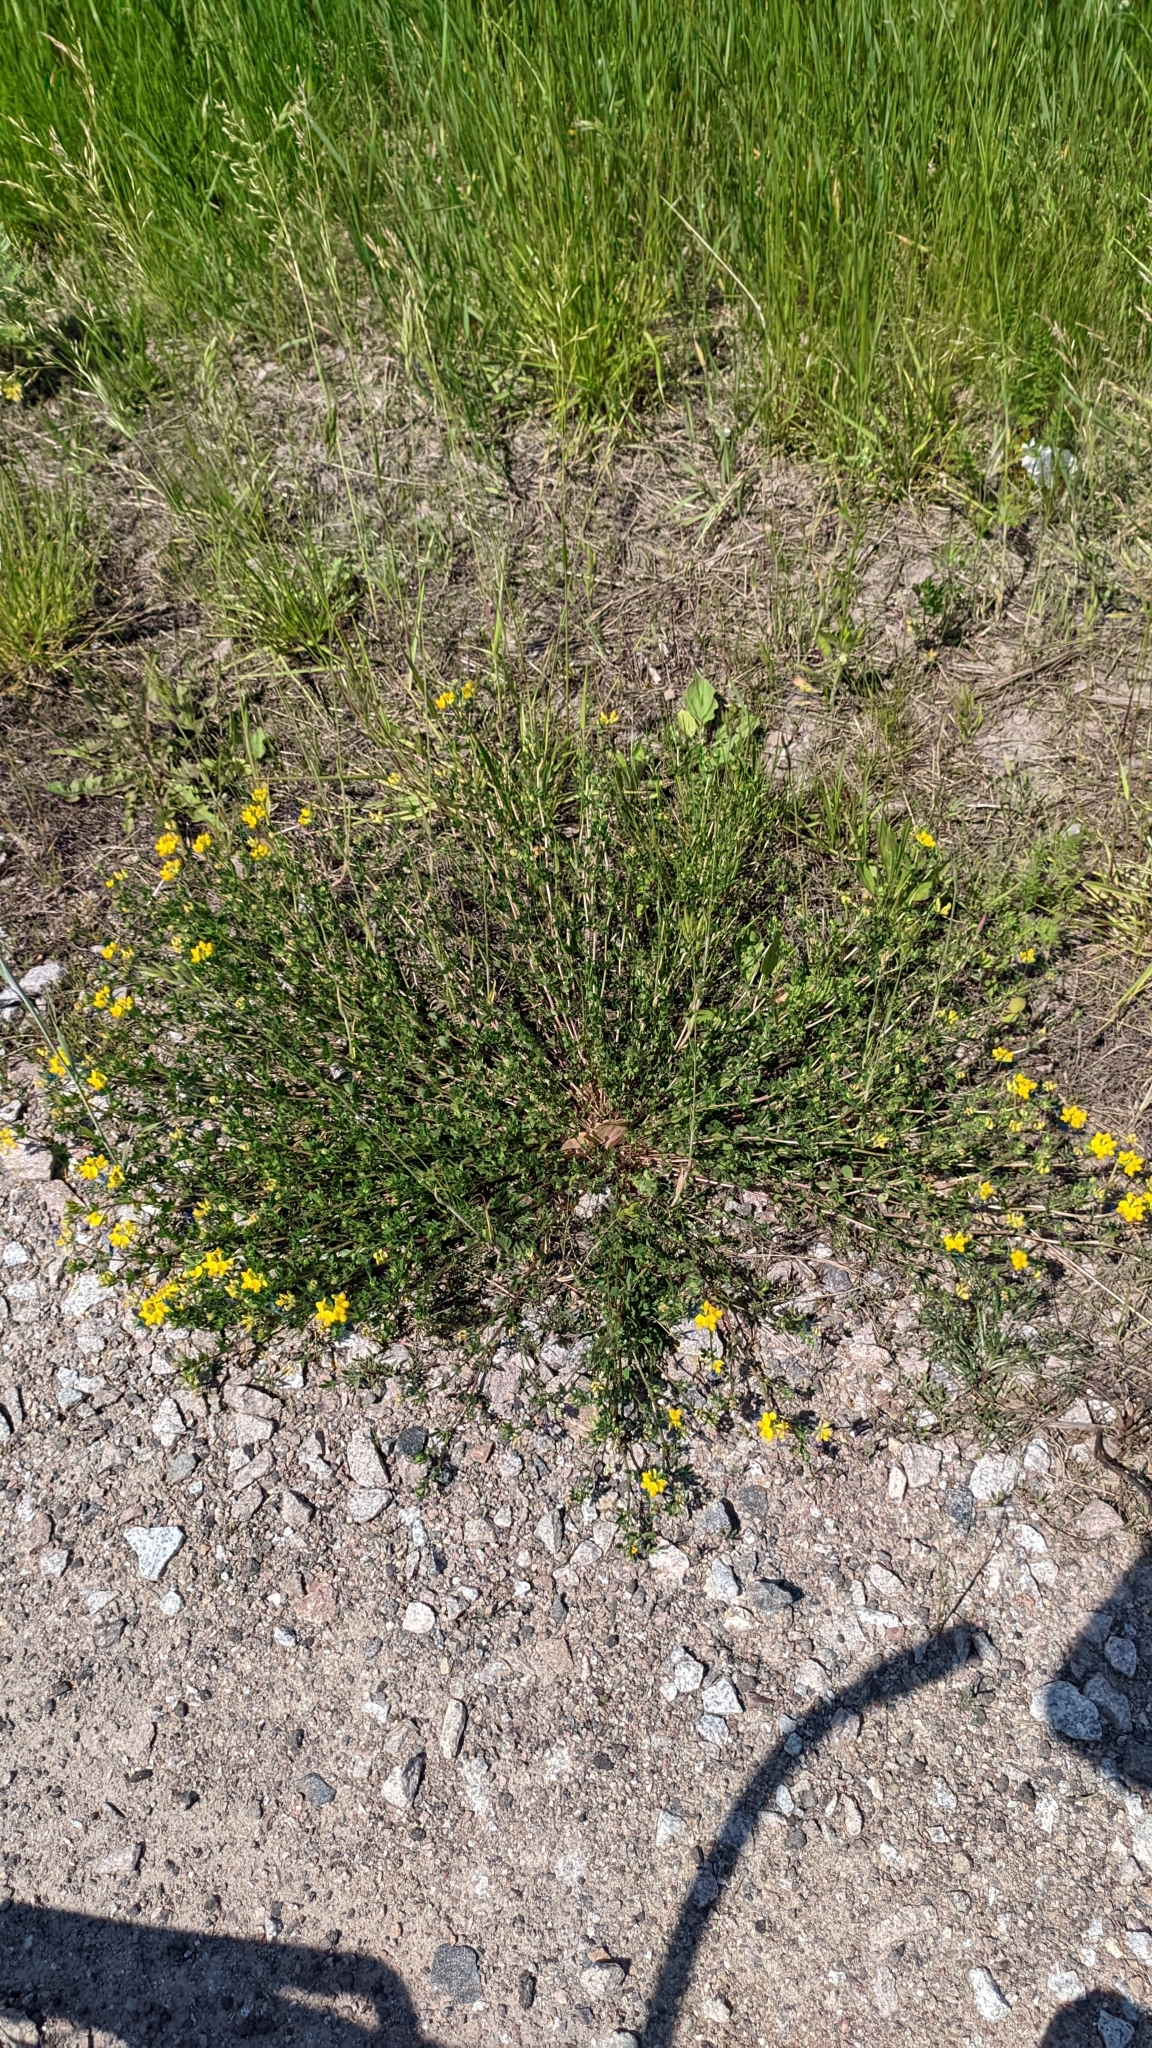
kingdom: Plantae
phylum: Tracheophyta
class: Magnoliopsida
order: Fabales
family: Fabaceae
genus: Lotus
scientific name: Lotus corniculatus
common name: Common bird's-foot-trefoil
